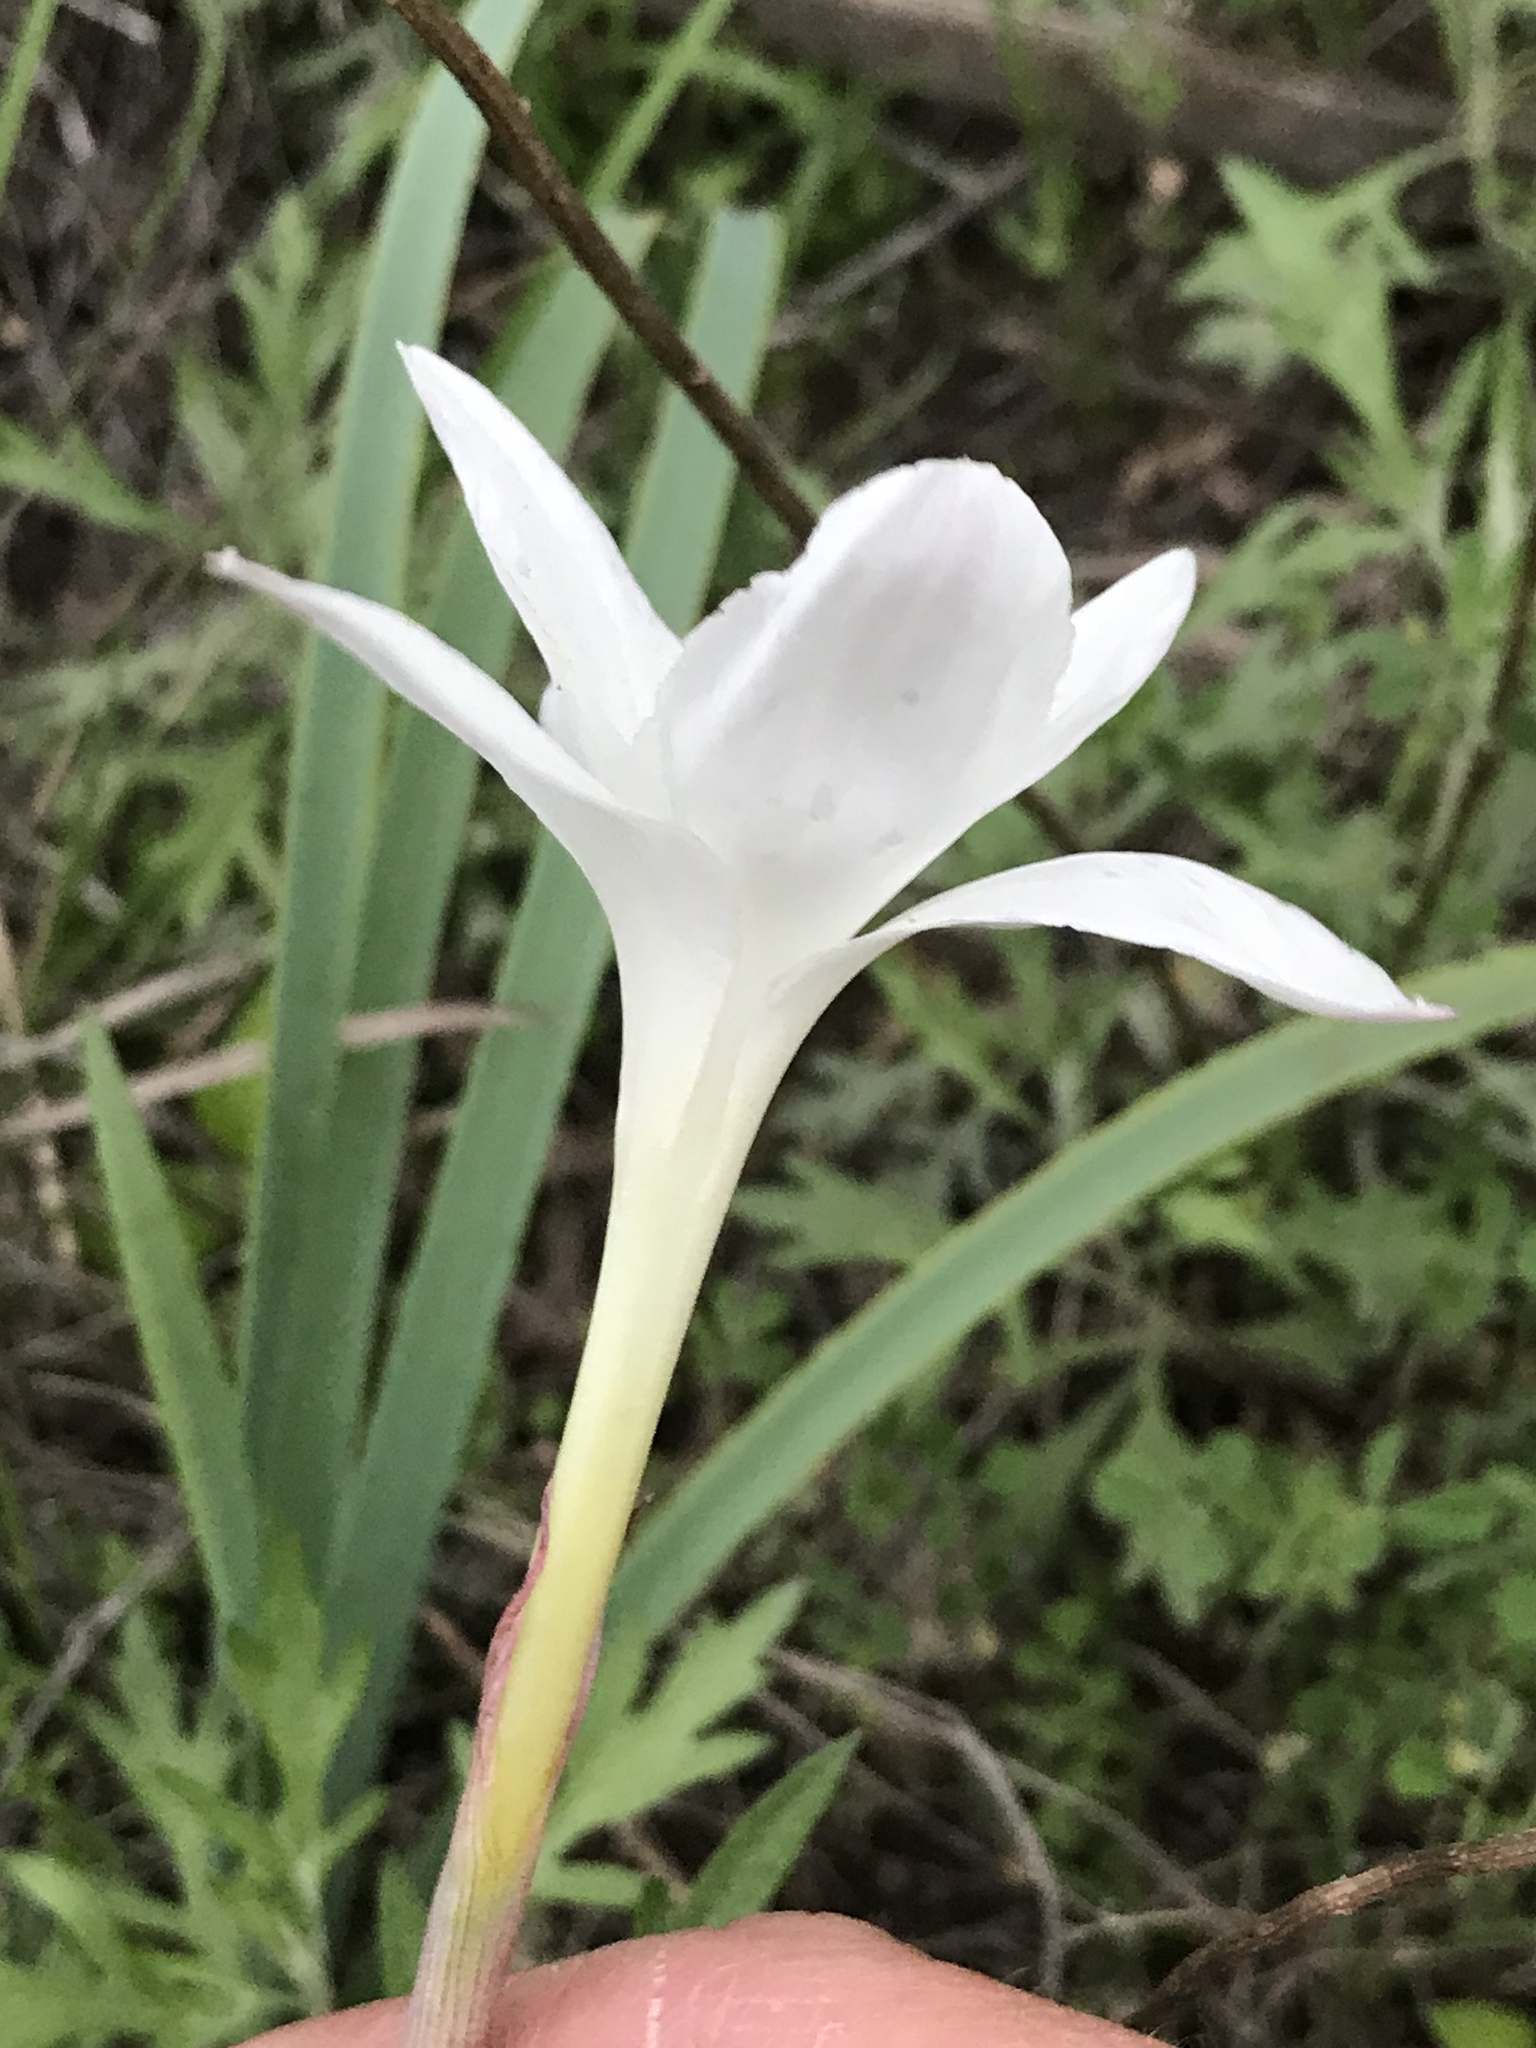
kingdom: Plantae
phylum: Tracheophyta
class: Liliopsida
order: Asparagales
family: Amaryllidaceae
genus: Zephyranthes
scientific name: Zephyranthes drummondii
